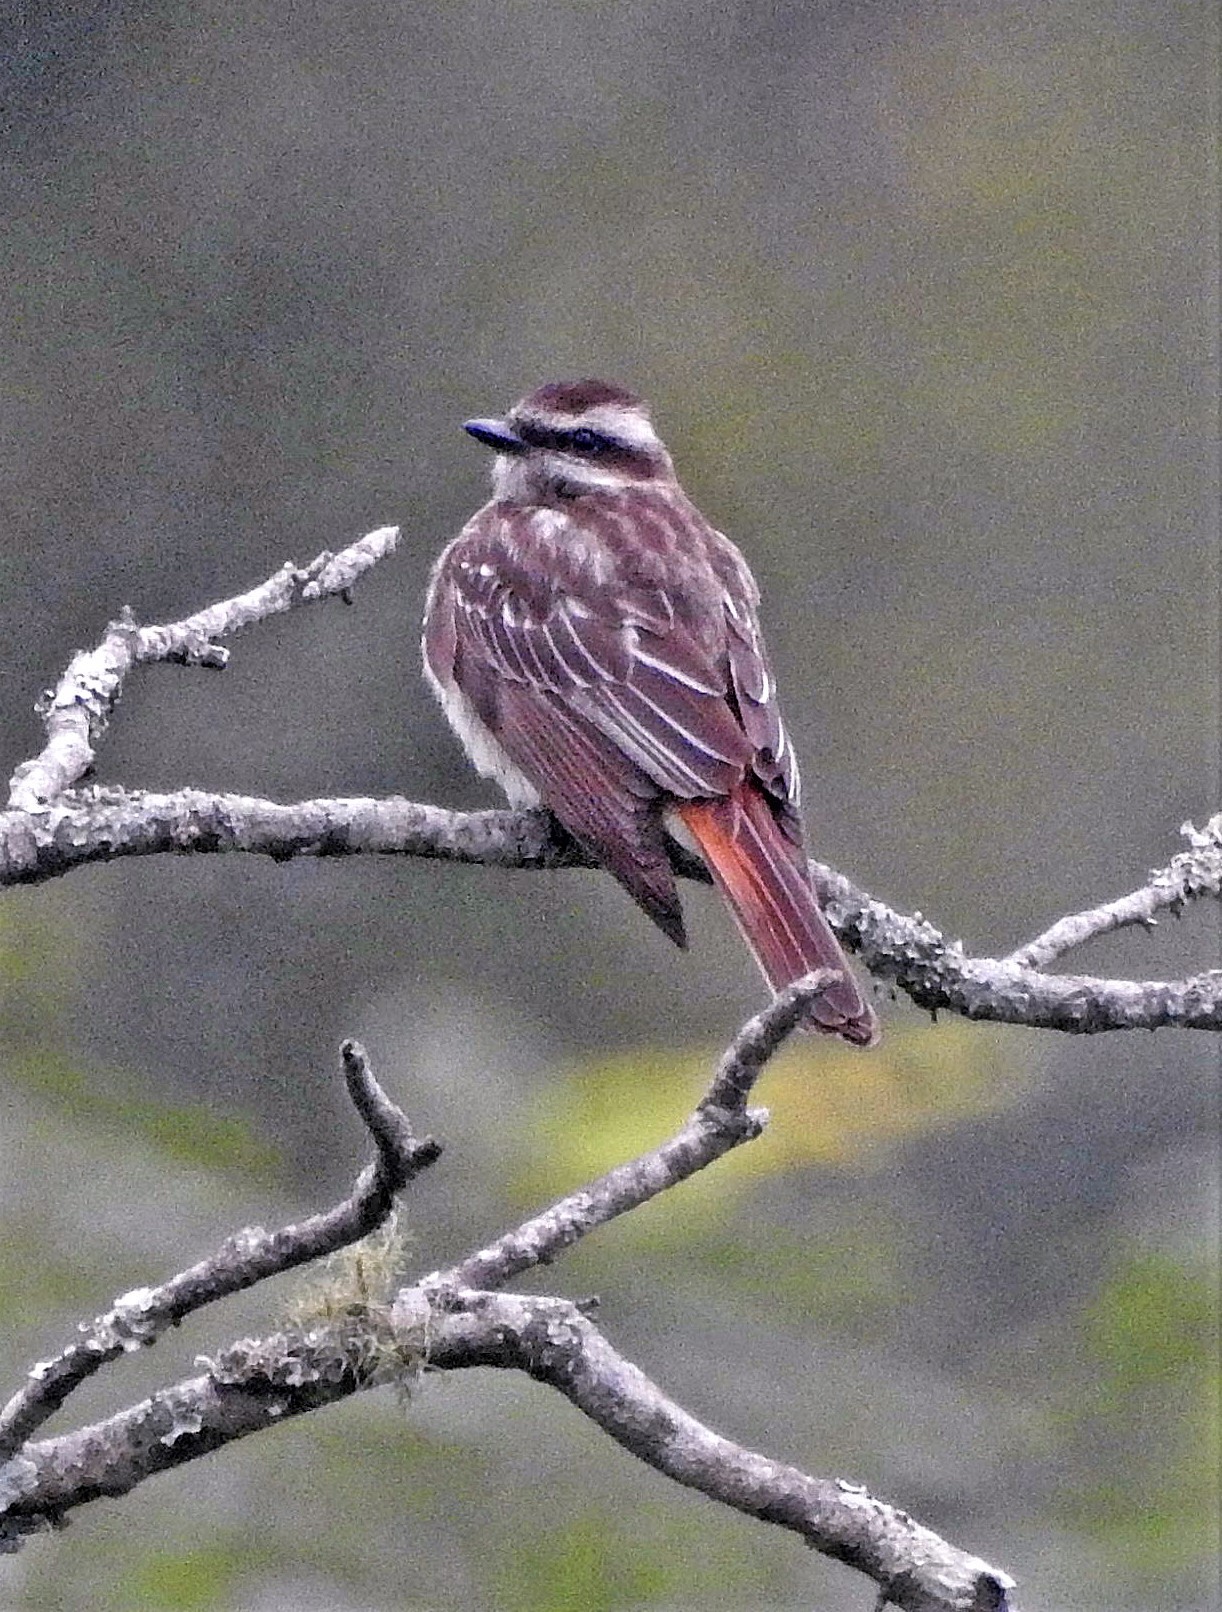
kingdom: Animalia
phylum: Chordata
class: Aves
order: Passeriformes
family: Tyrannidae
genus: Empidonomus
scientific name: Empidonomus varius
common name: Variegated flycatcher
